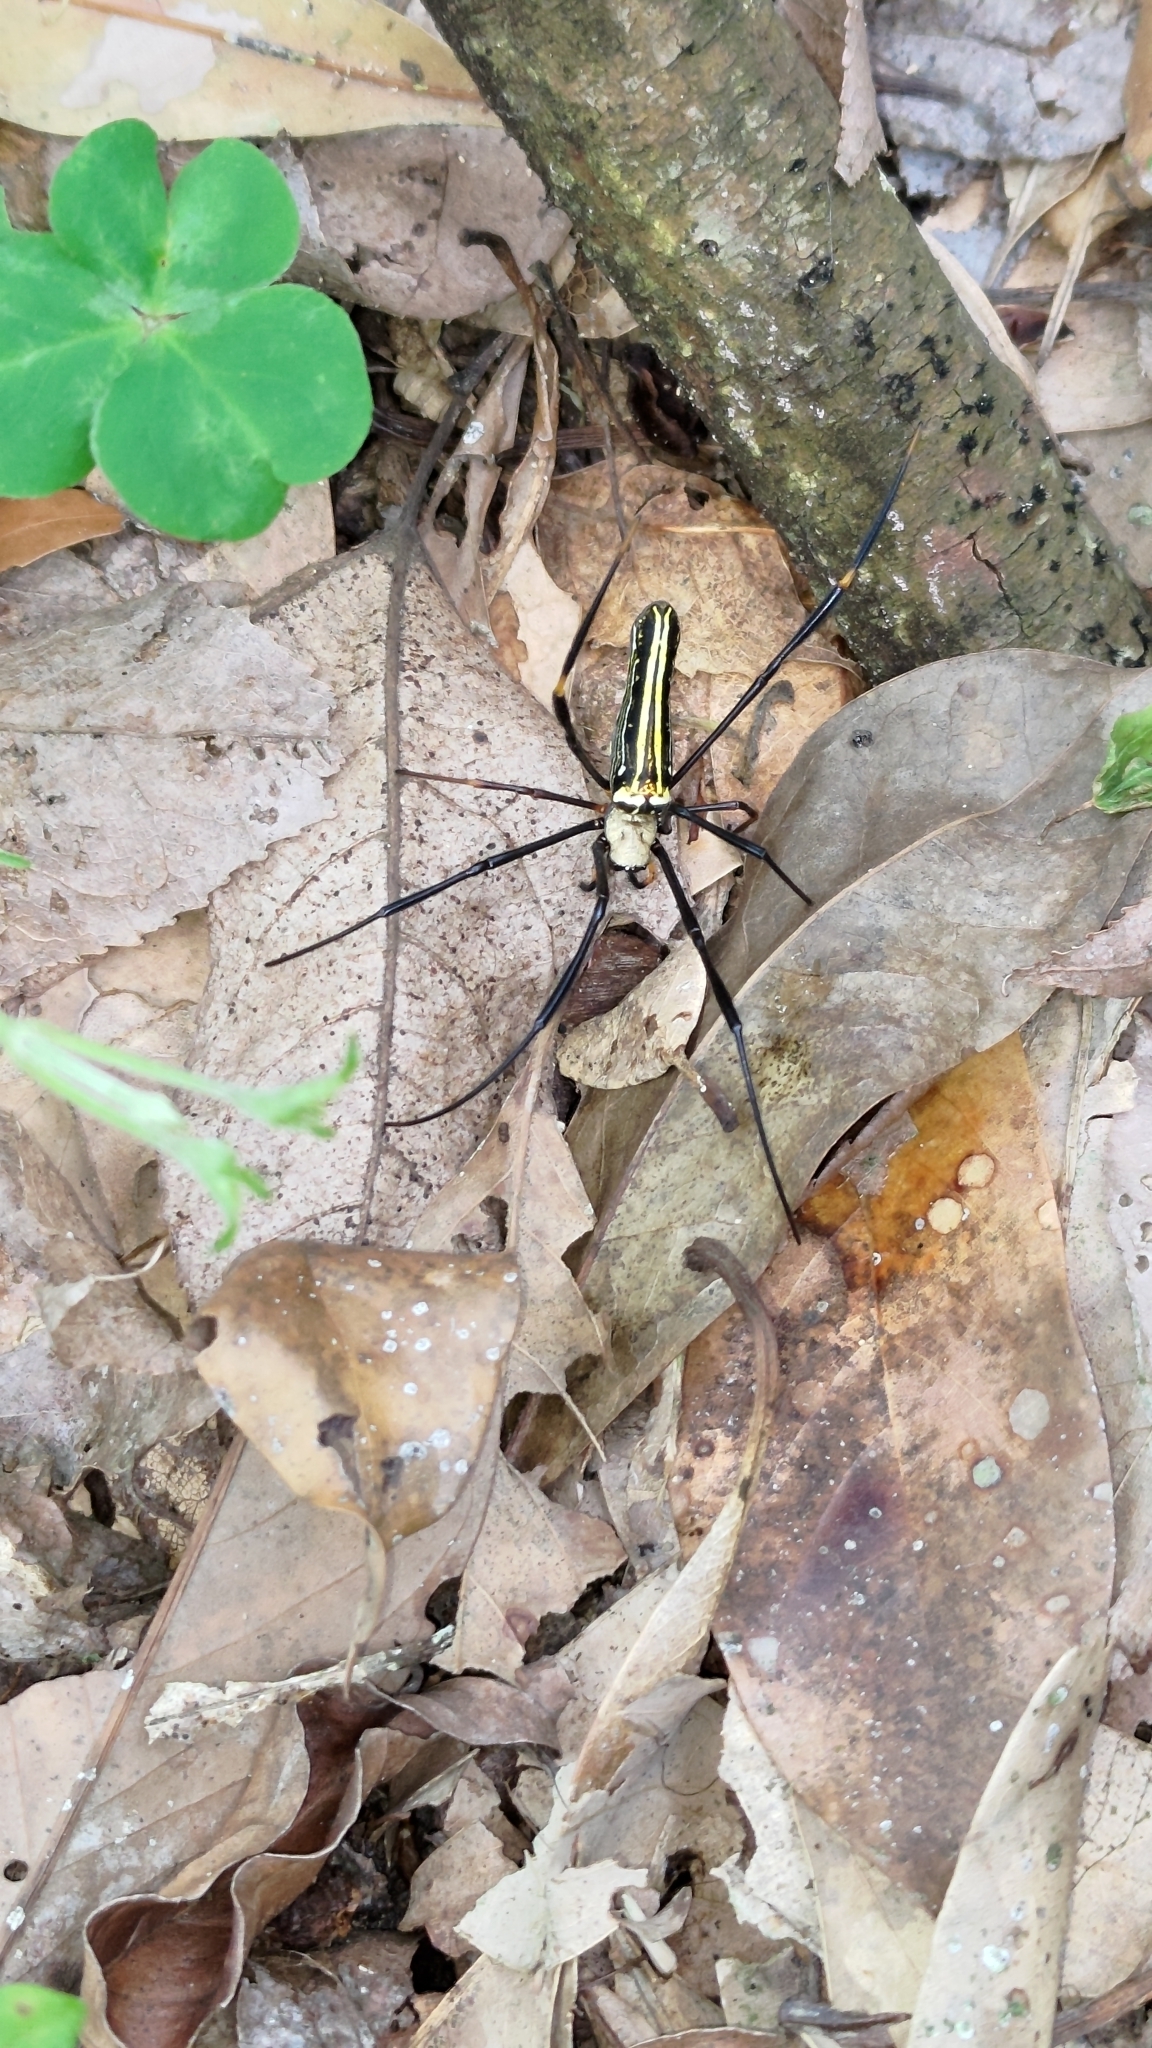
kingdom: Animalia
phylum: Arthropoda
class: Arachnida
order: Araneae
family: Araneidae
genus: Nephila
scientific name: Nephila pilipes
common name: Giant golden orb weaver
